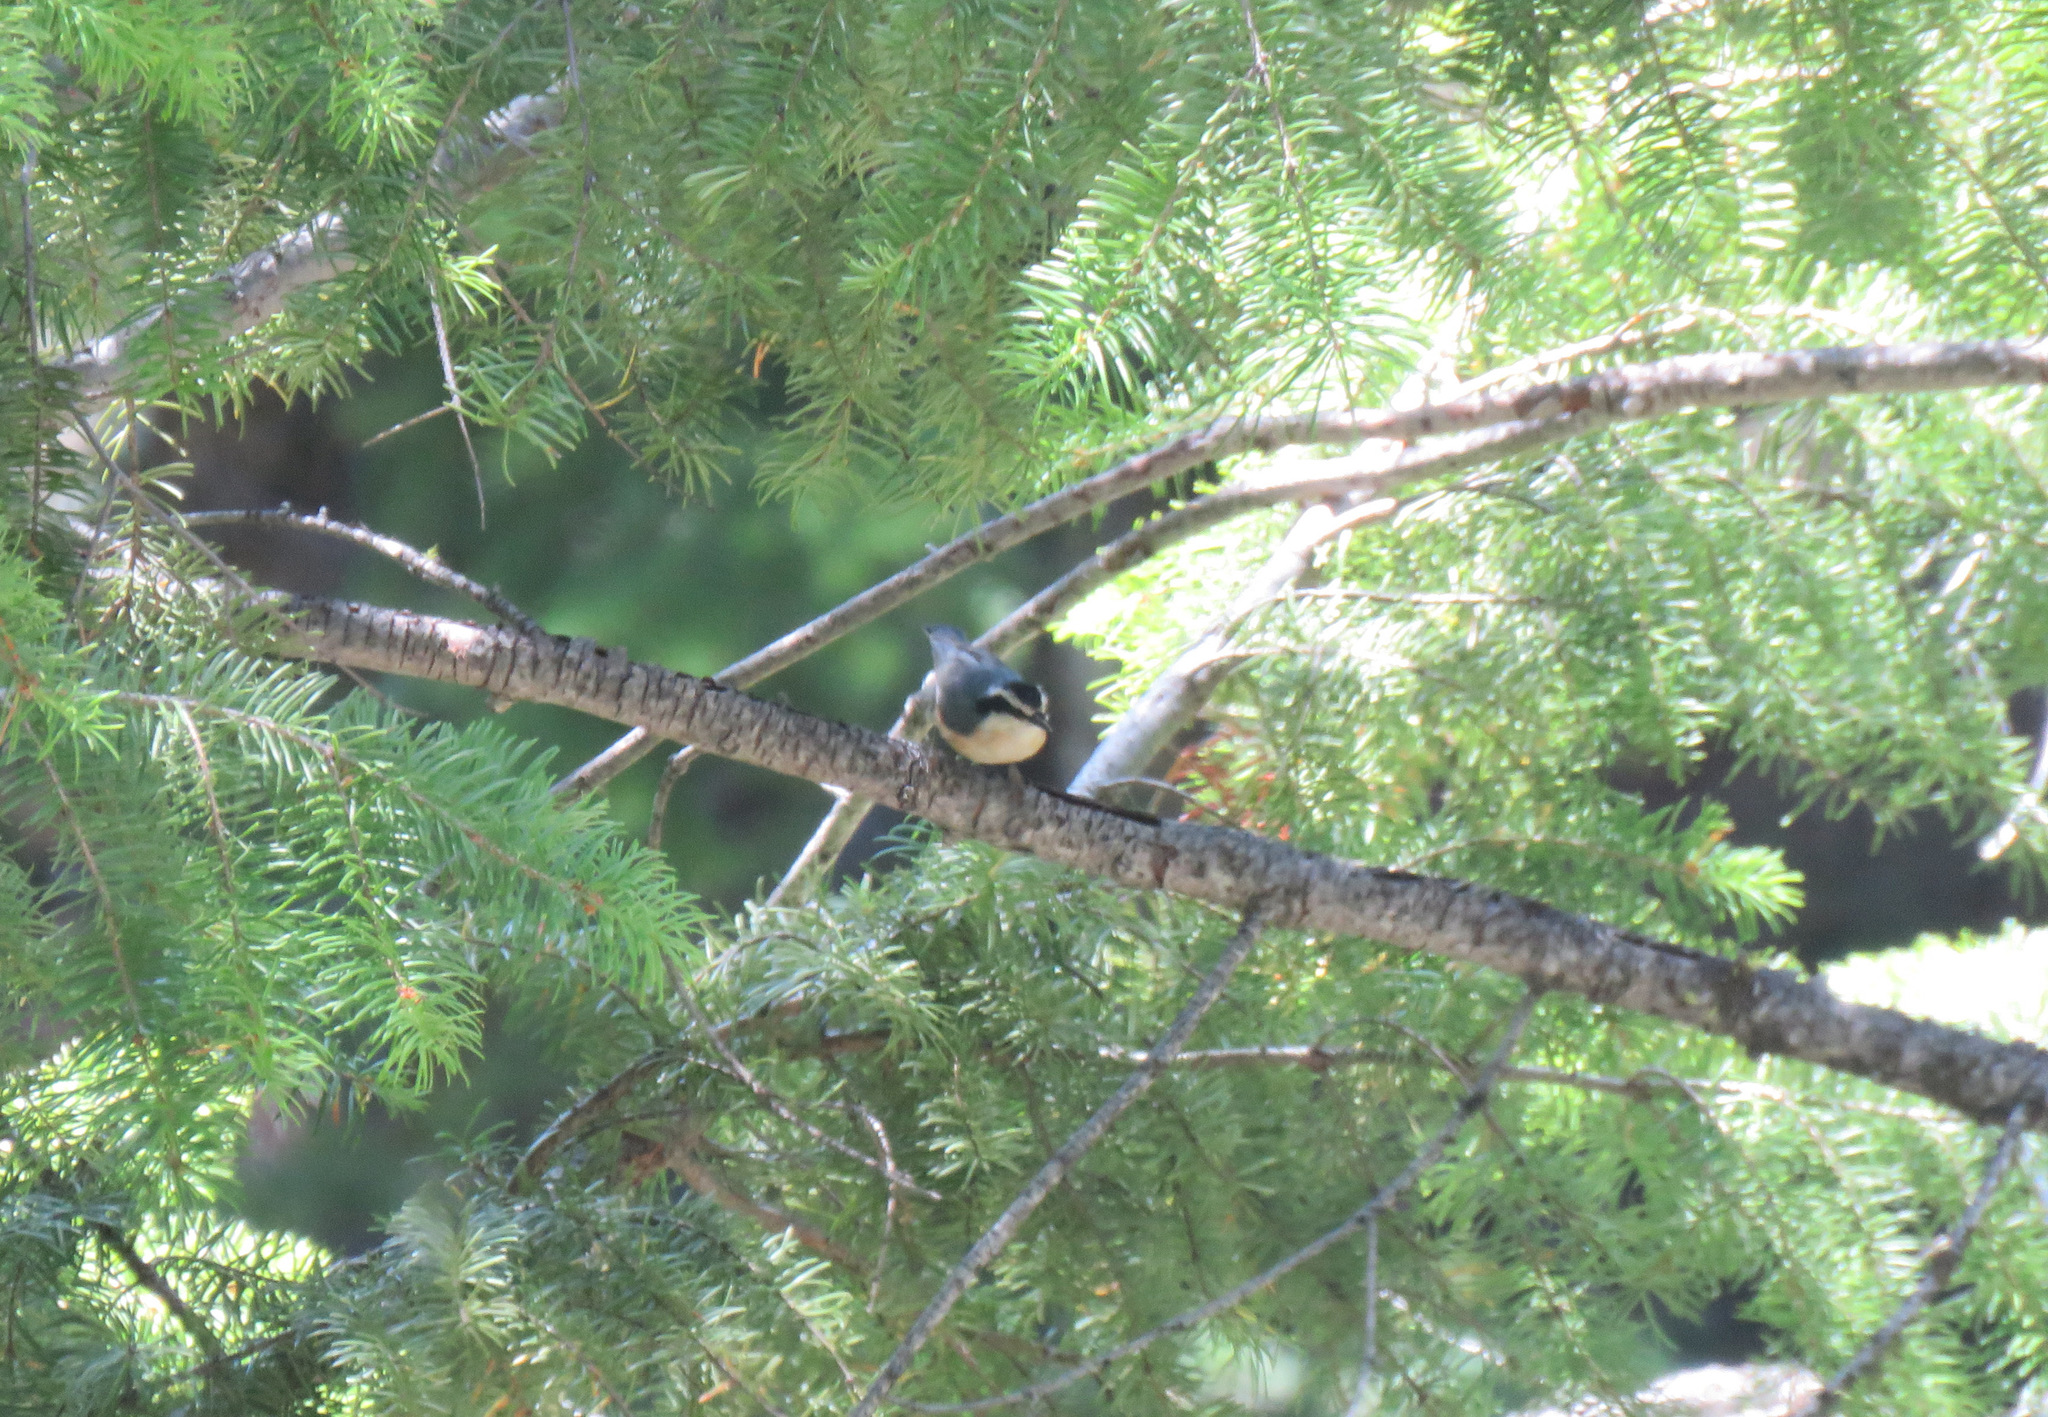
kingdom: Animalia
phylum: Chordata
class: Aves
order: Passeriformes
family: Sittidae
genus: Sitta
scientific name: Sitta canadensis
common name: Red-breasted nuthatch
